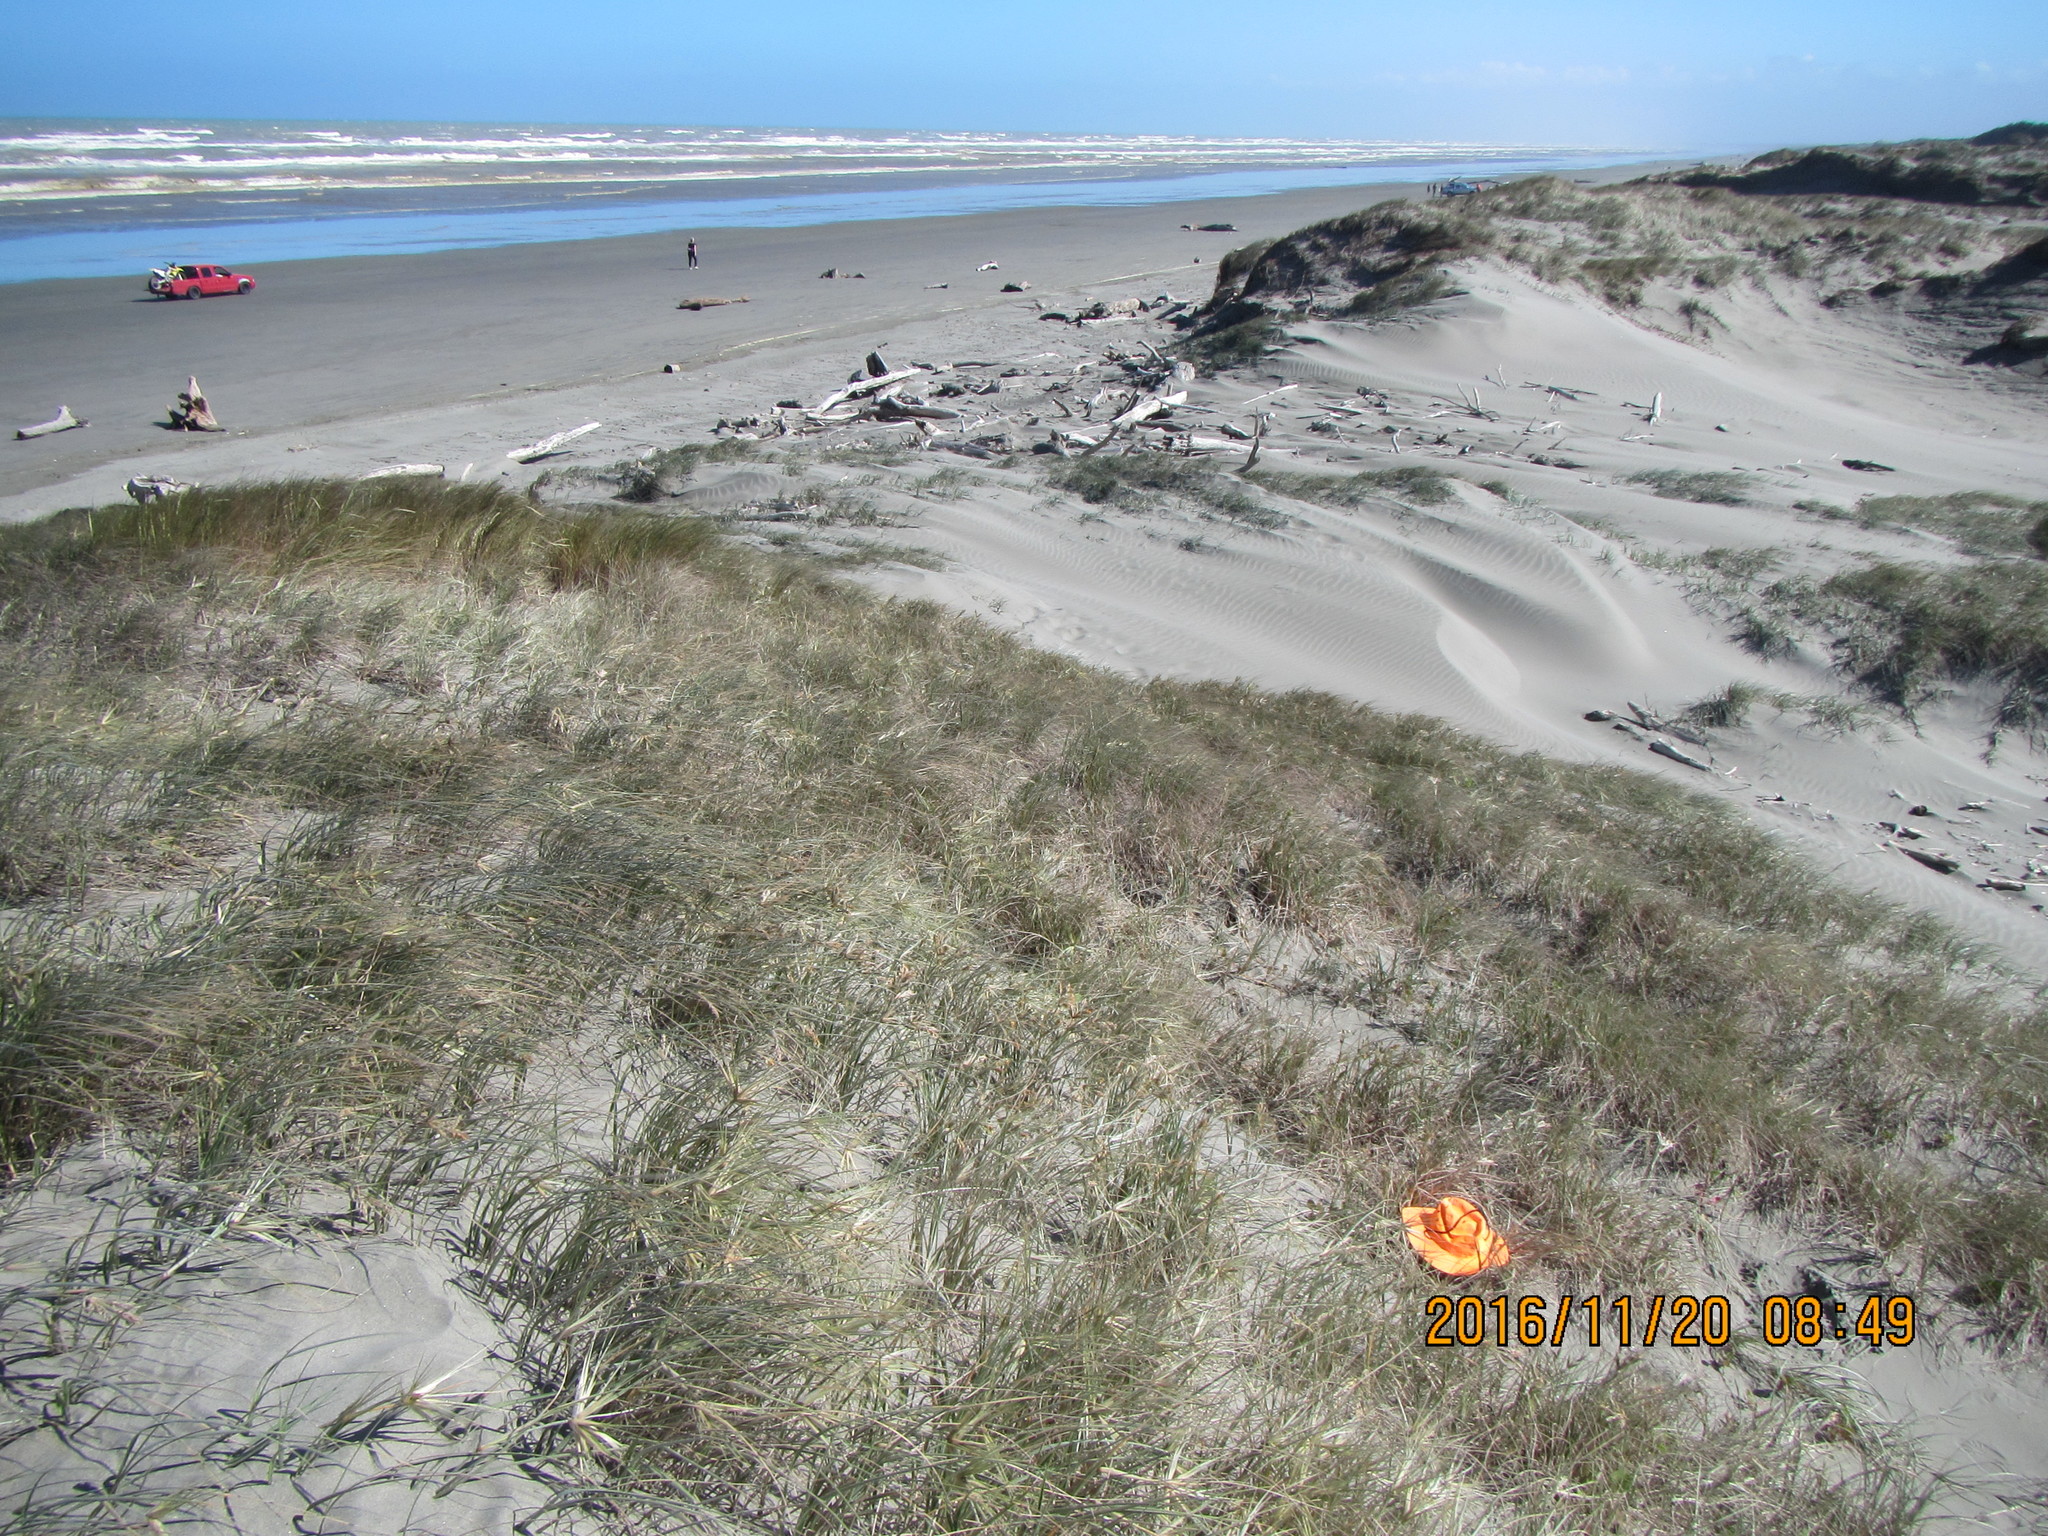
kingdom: Animalia
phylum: Arthropoda
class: Insecta
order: Blattodea
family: Blattidae
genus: Maoriblatta
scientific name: Maoriblatta novaeseelandiae
